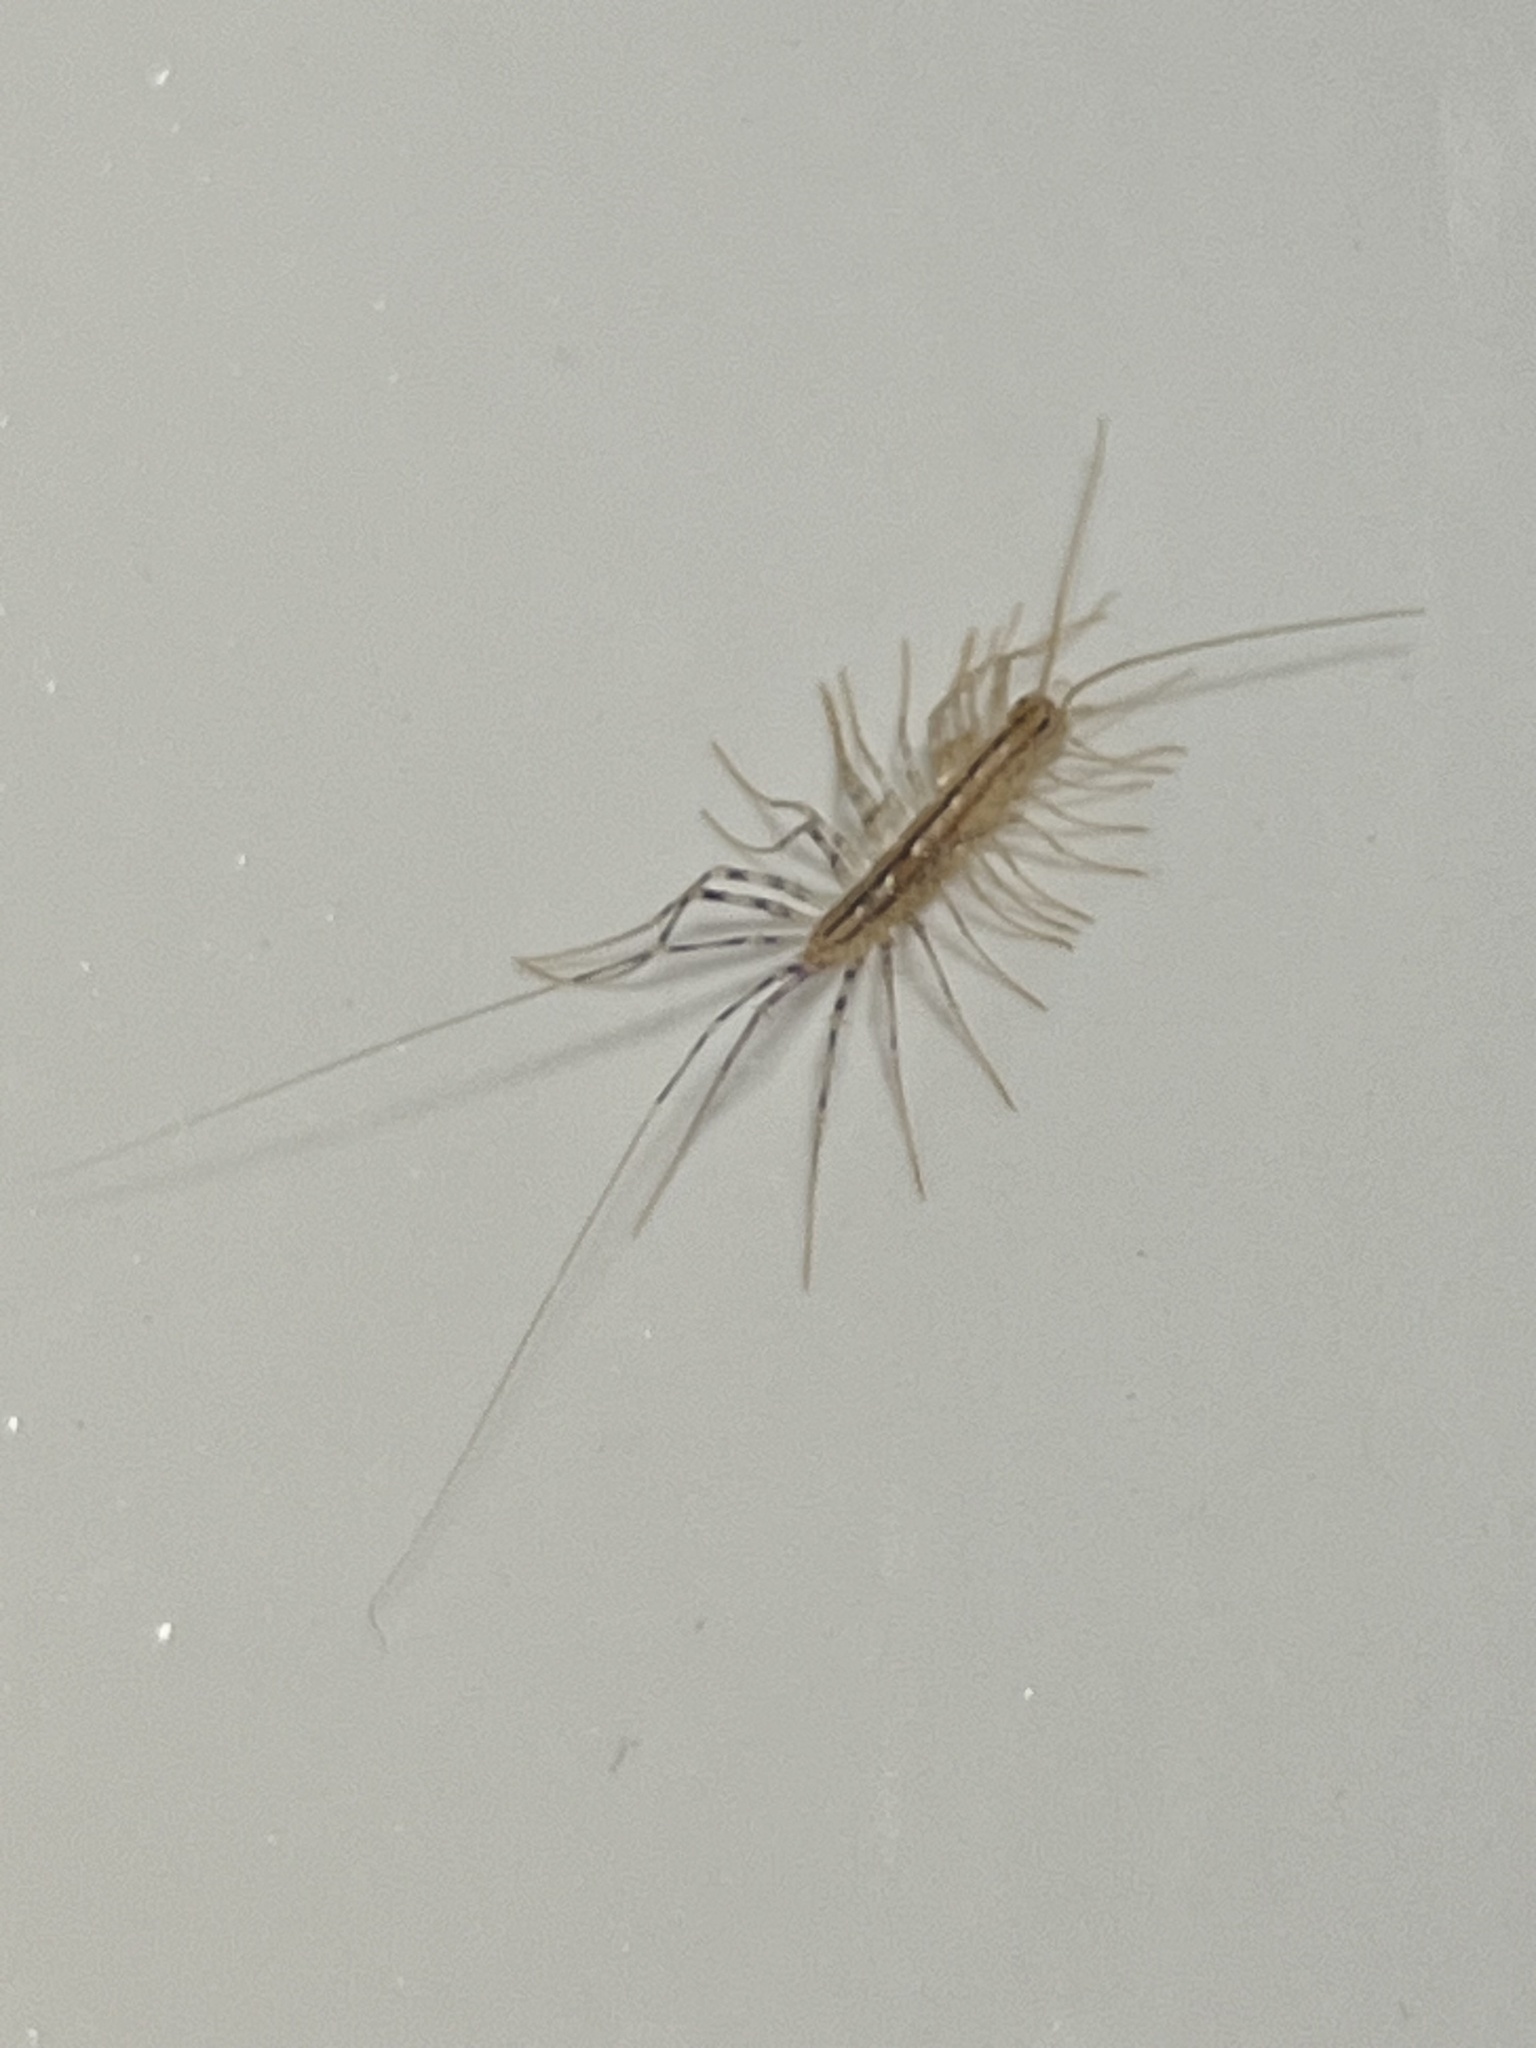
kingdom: Animalia
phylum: Arthropoda
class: Chilopoda
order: Scutigeromorpha
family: Scutigeridae
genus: Scutigera
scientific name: Scutigera coleoptrata
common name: House centipede
